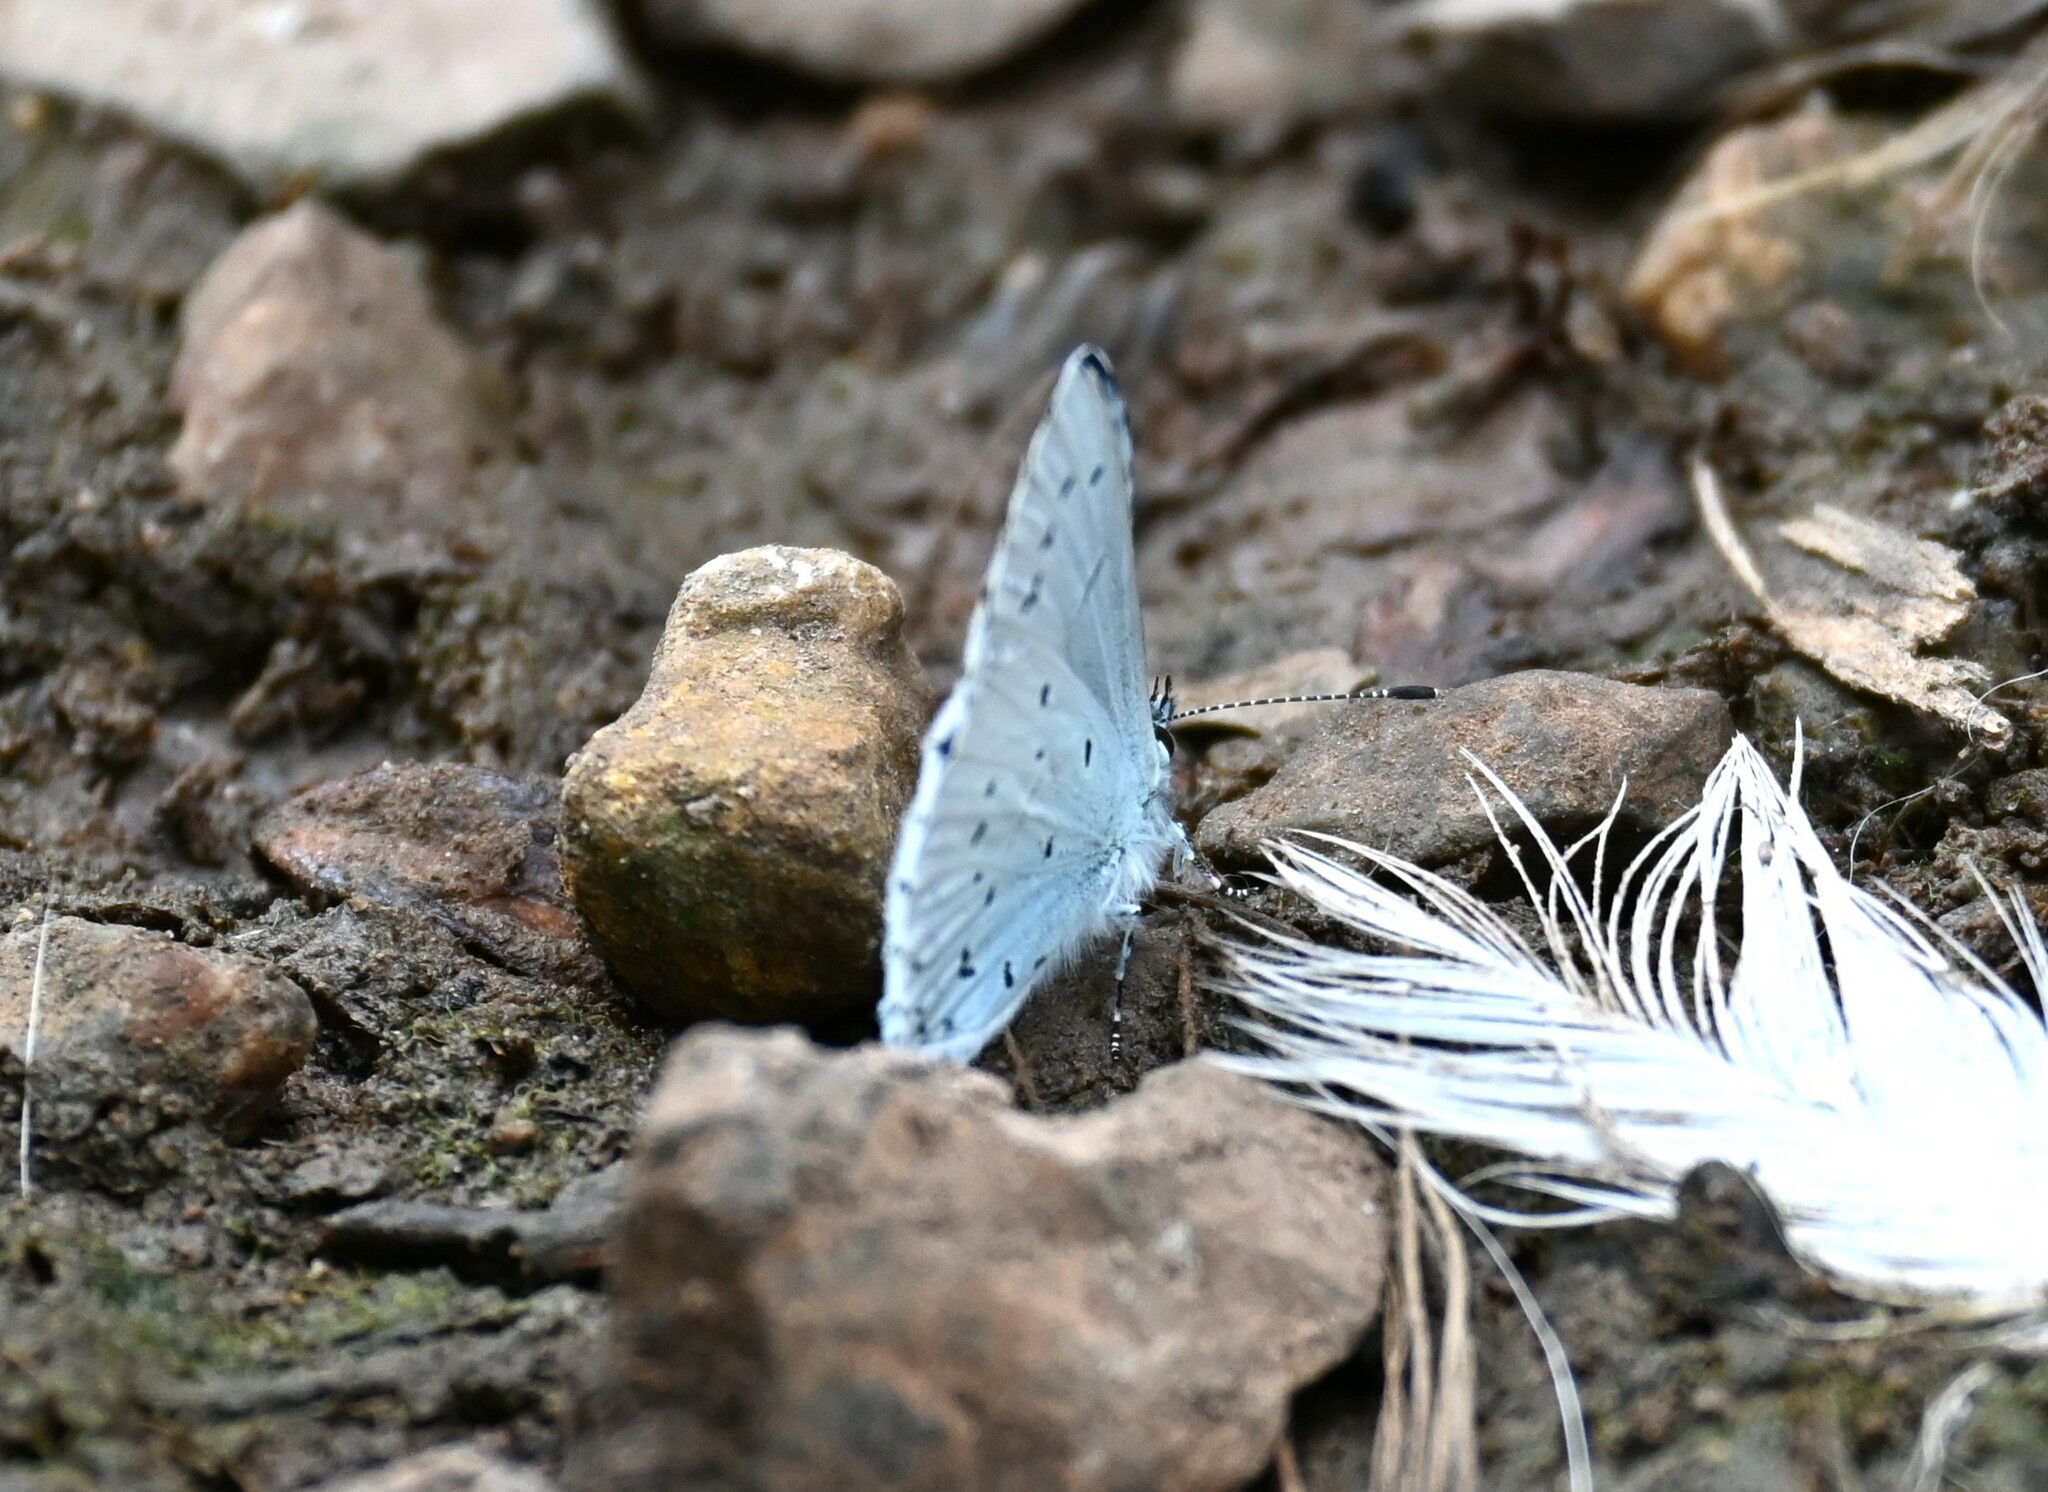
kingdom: Animalia
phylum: Arthropoda
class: Insecta
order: Lepidoptera
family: Lycaenidae
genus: Celastrina
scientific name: Celastrina argiolus
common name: Holly blue
